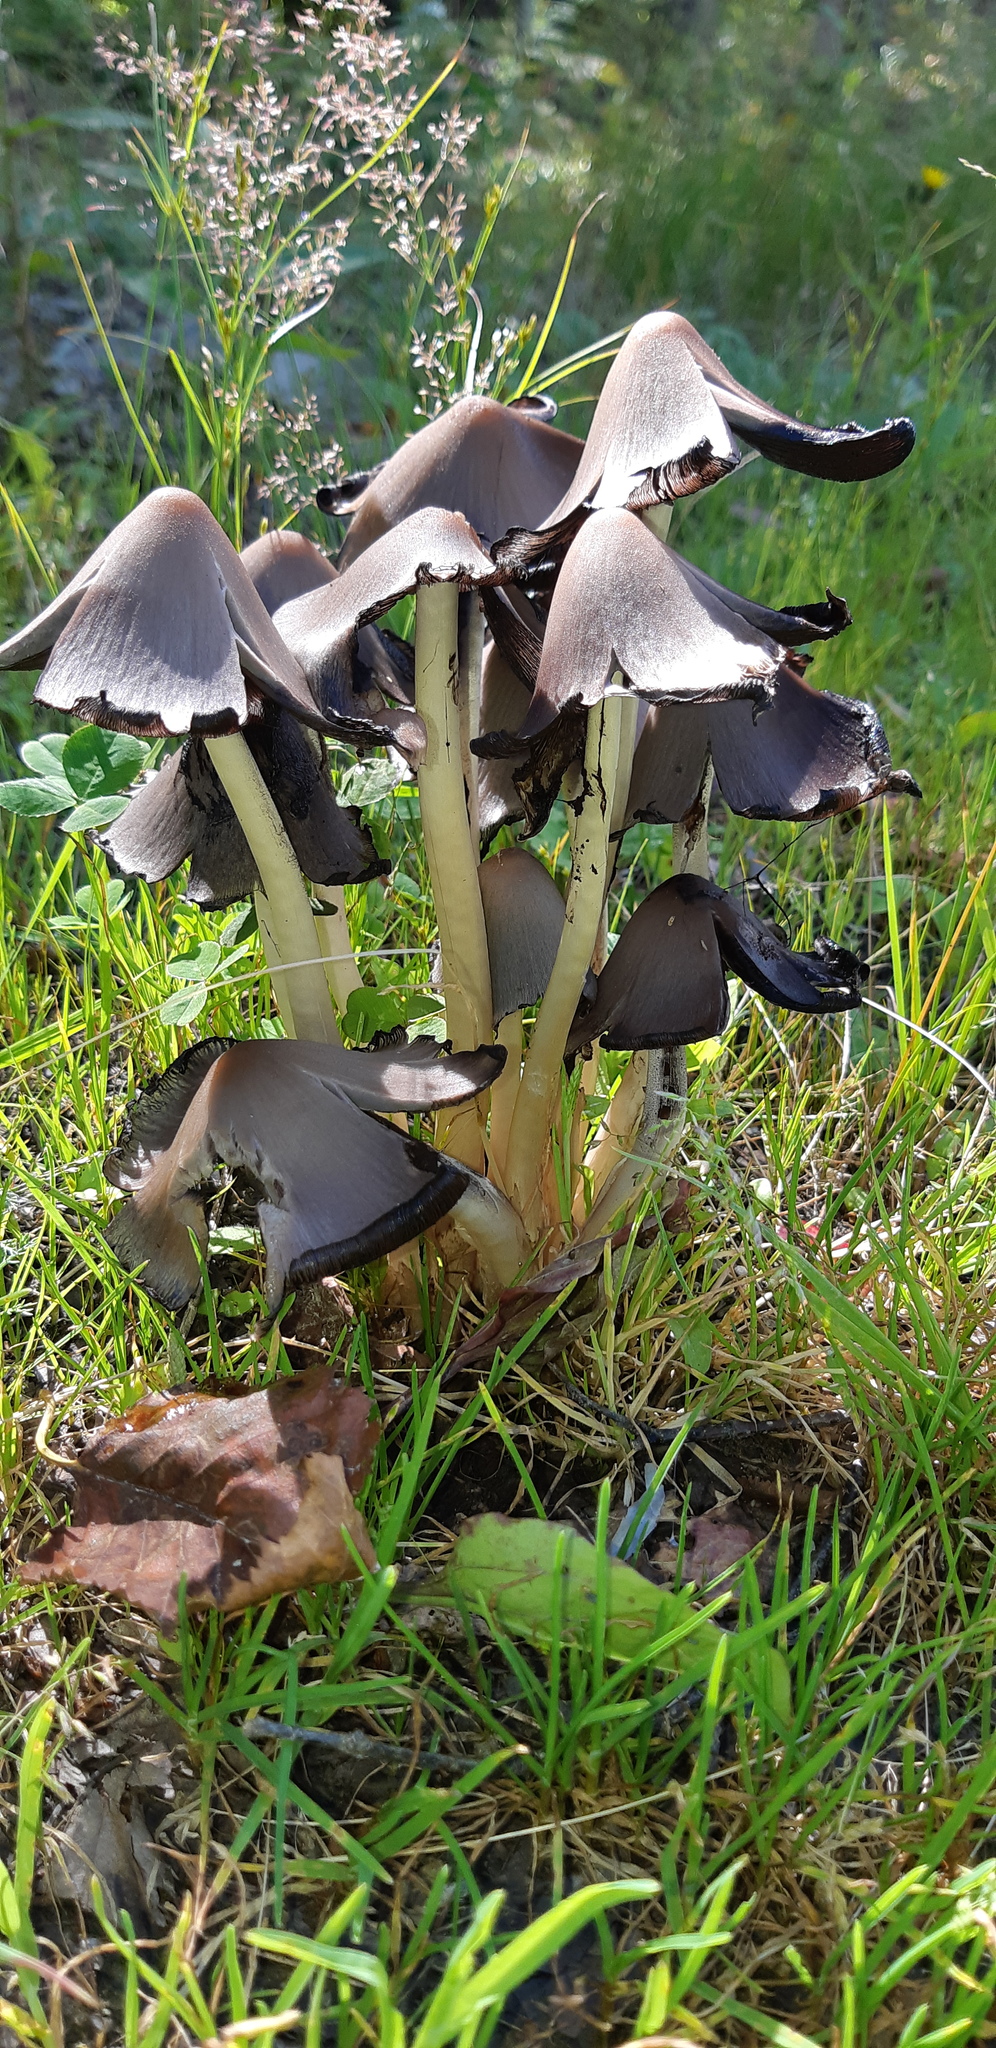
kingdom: Fungi
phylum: Basidiomycota
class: Agaricomycetes
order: Agaricales
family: Psathyrellaceae
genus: Coprinopsis
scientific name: Coprinopsis atramentaria
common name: Common ink-cap
